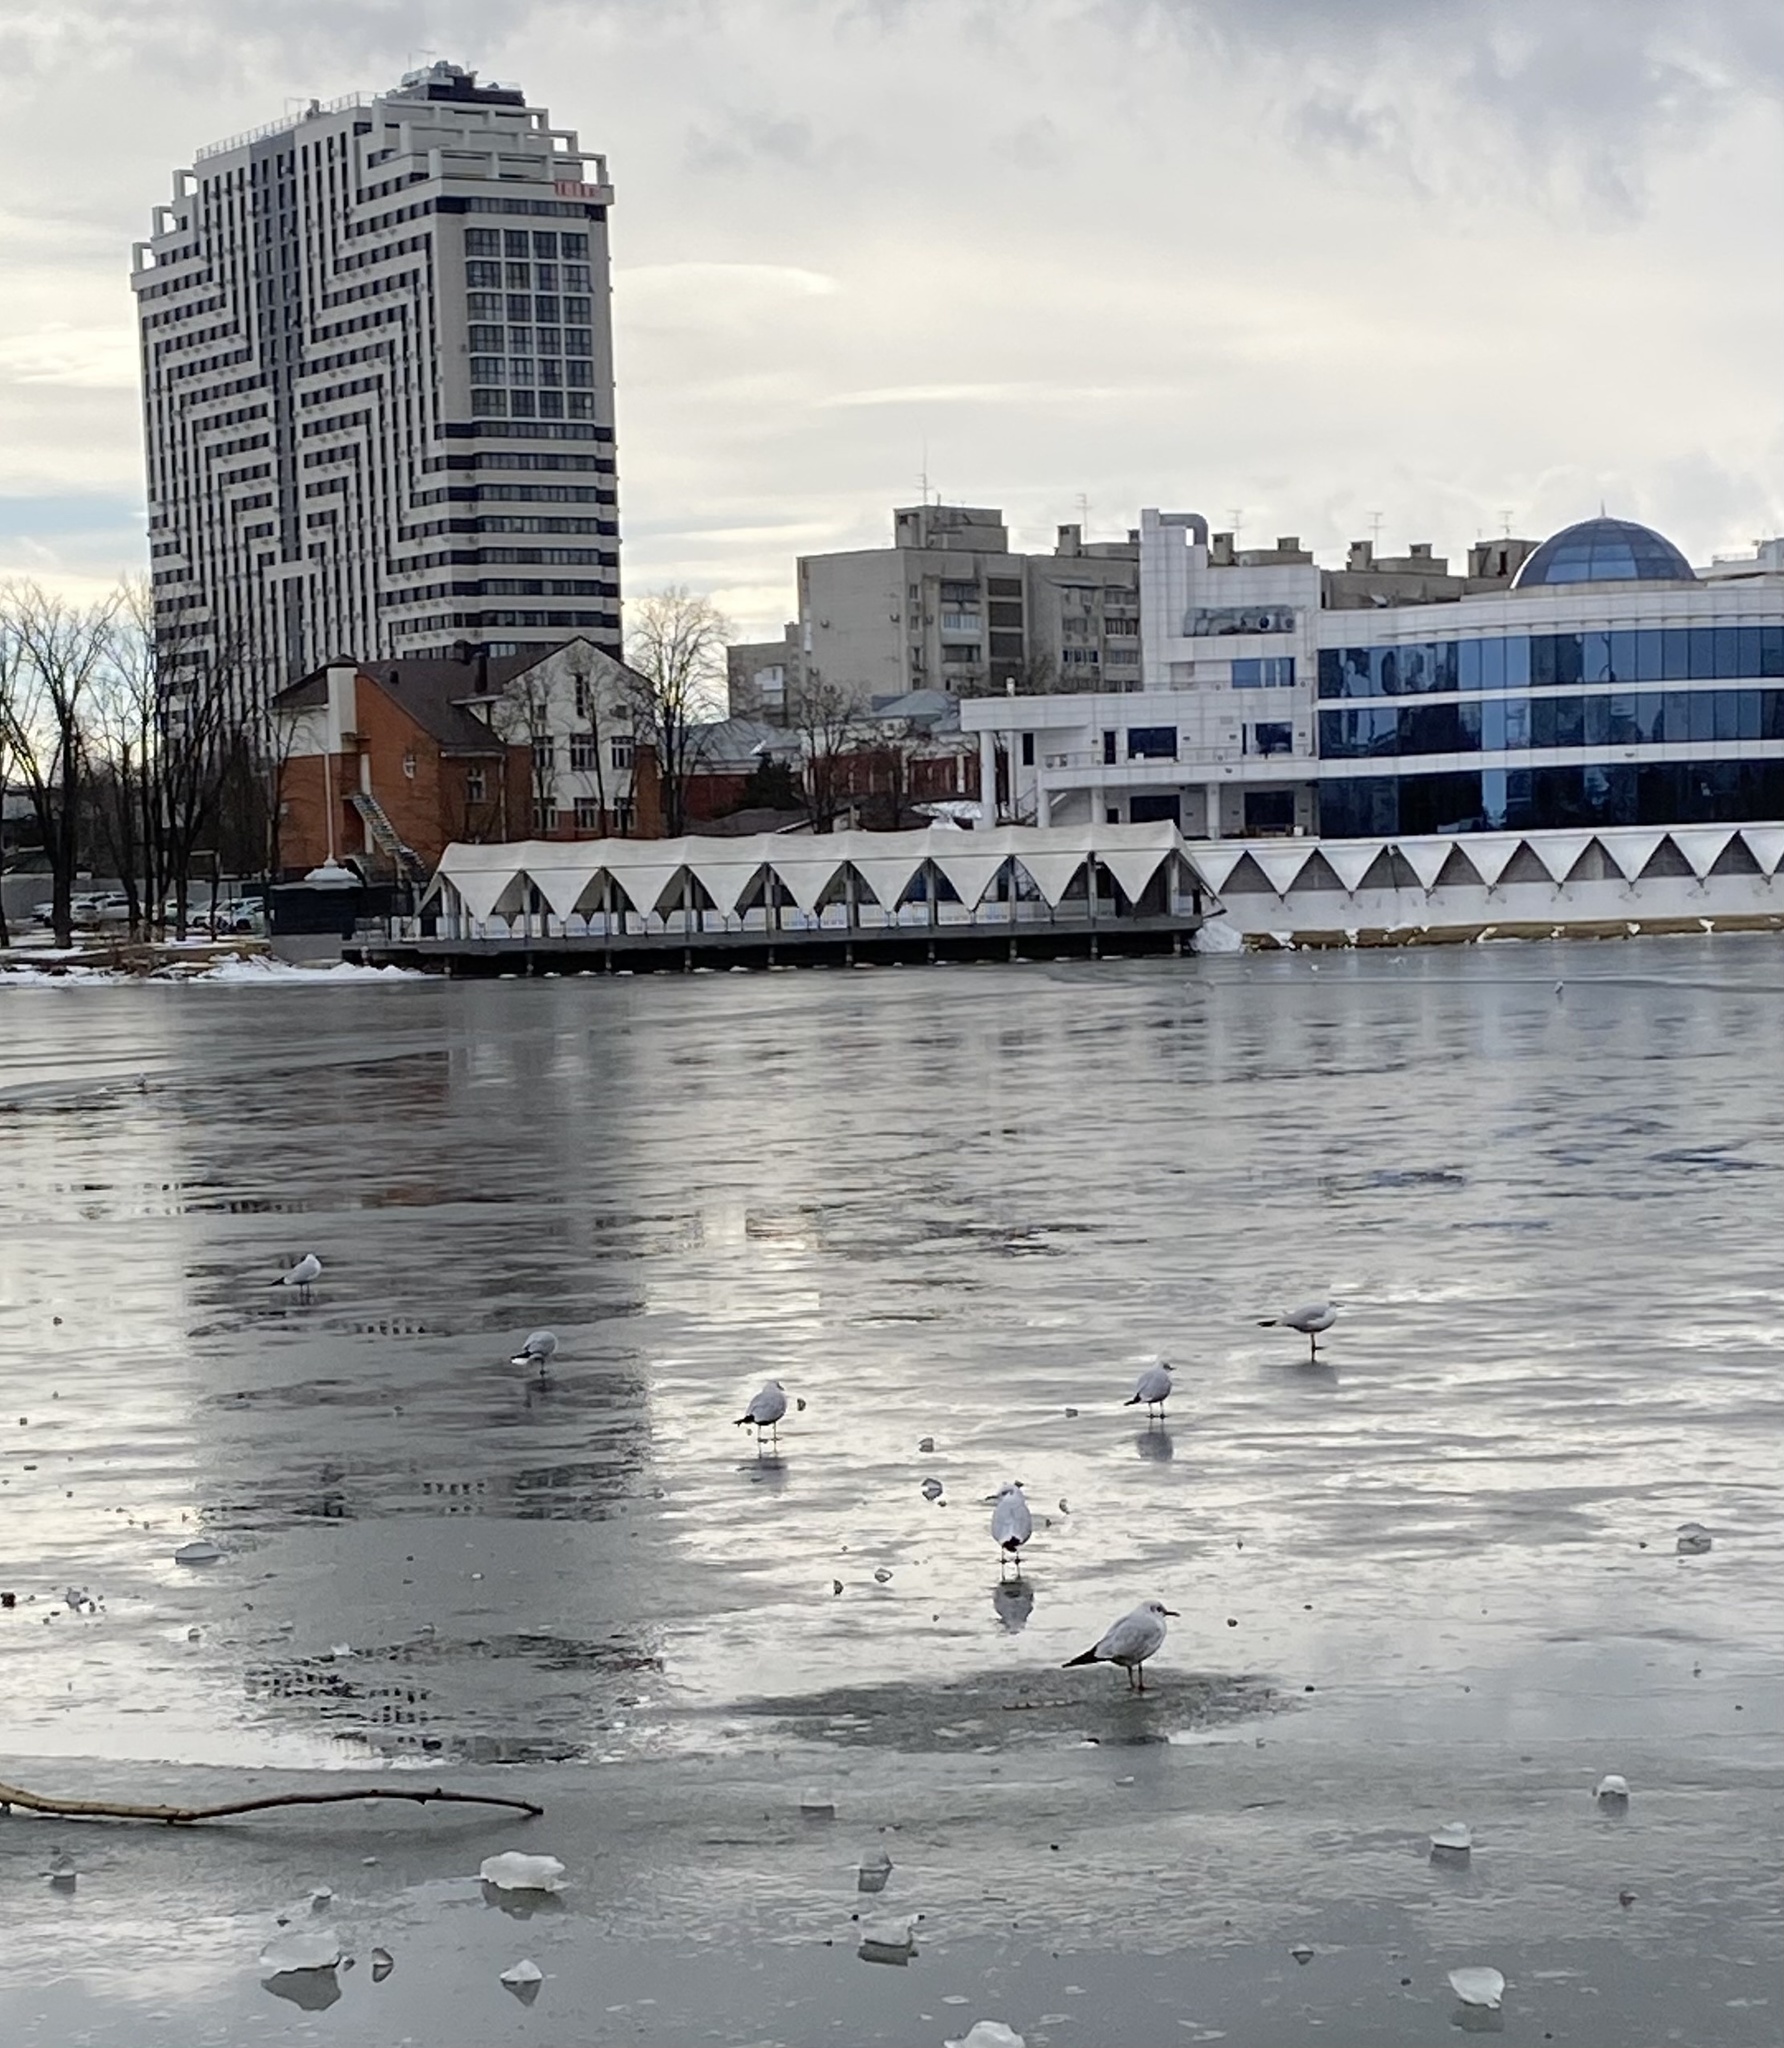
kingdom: Animalia
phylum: Chordata
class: Aves
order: Charadriiformes
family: Laridae
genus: Chroicocephalus
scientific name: Chroicocephalus ridibundus
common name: Black-headed gull
